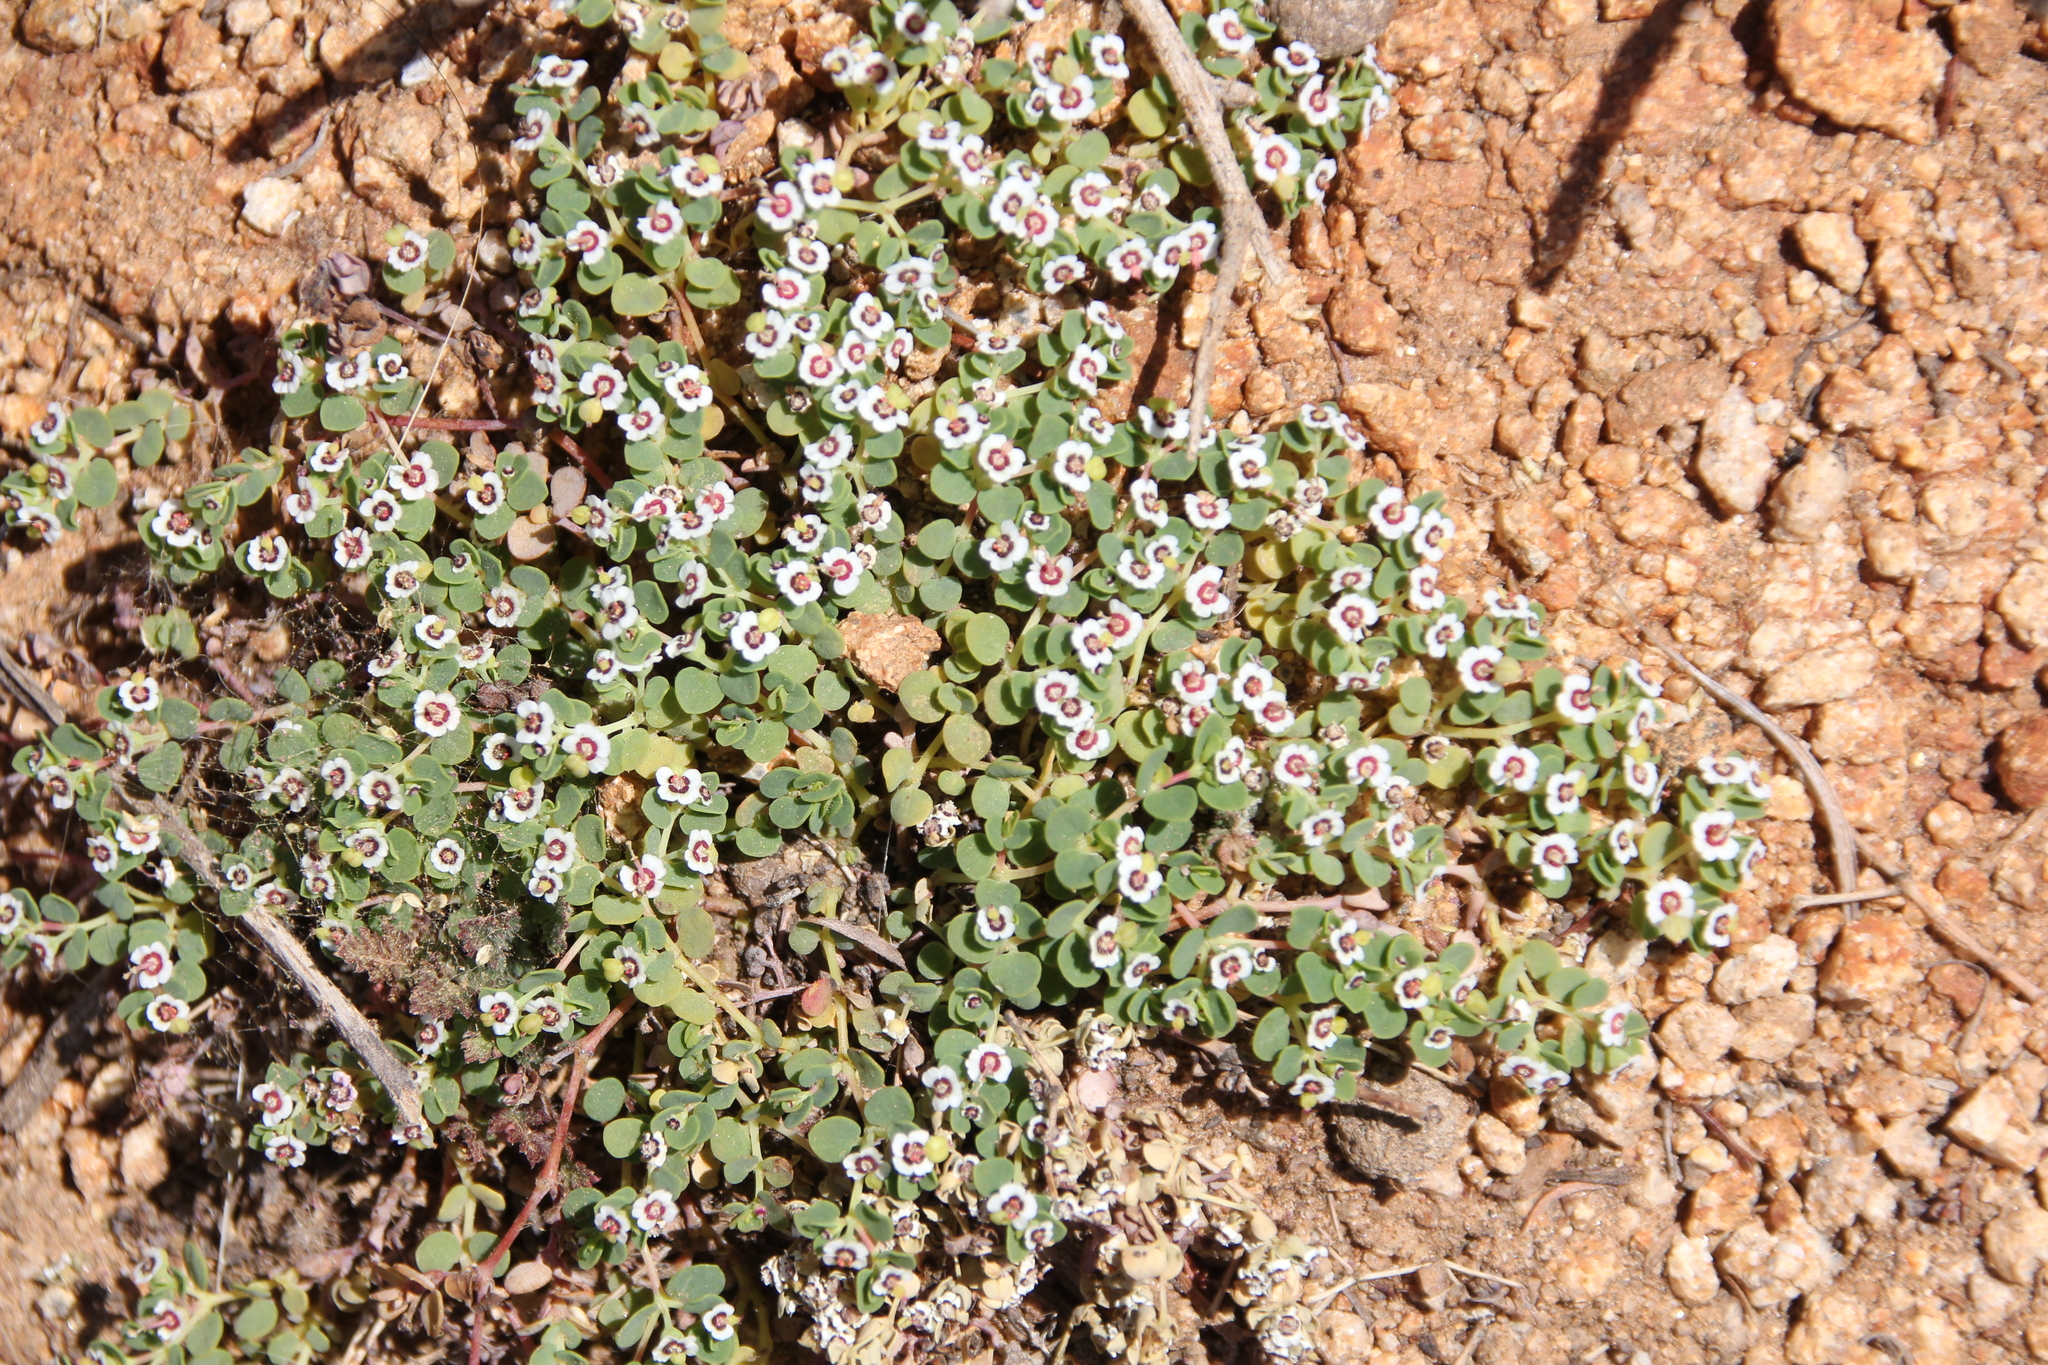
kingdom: Plantae
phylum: Tracheophyta
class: Magnoliopsida
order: Malpighiales
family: Euphorbiaceae
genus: Euphorbia
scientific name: Euphorbia polycarpa
